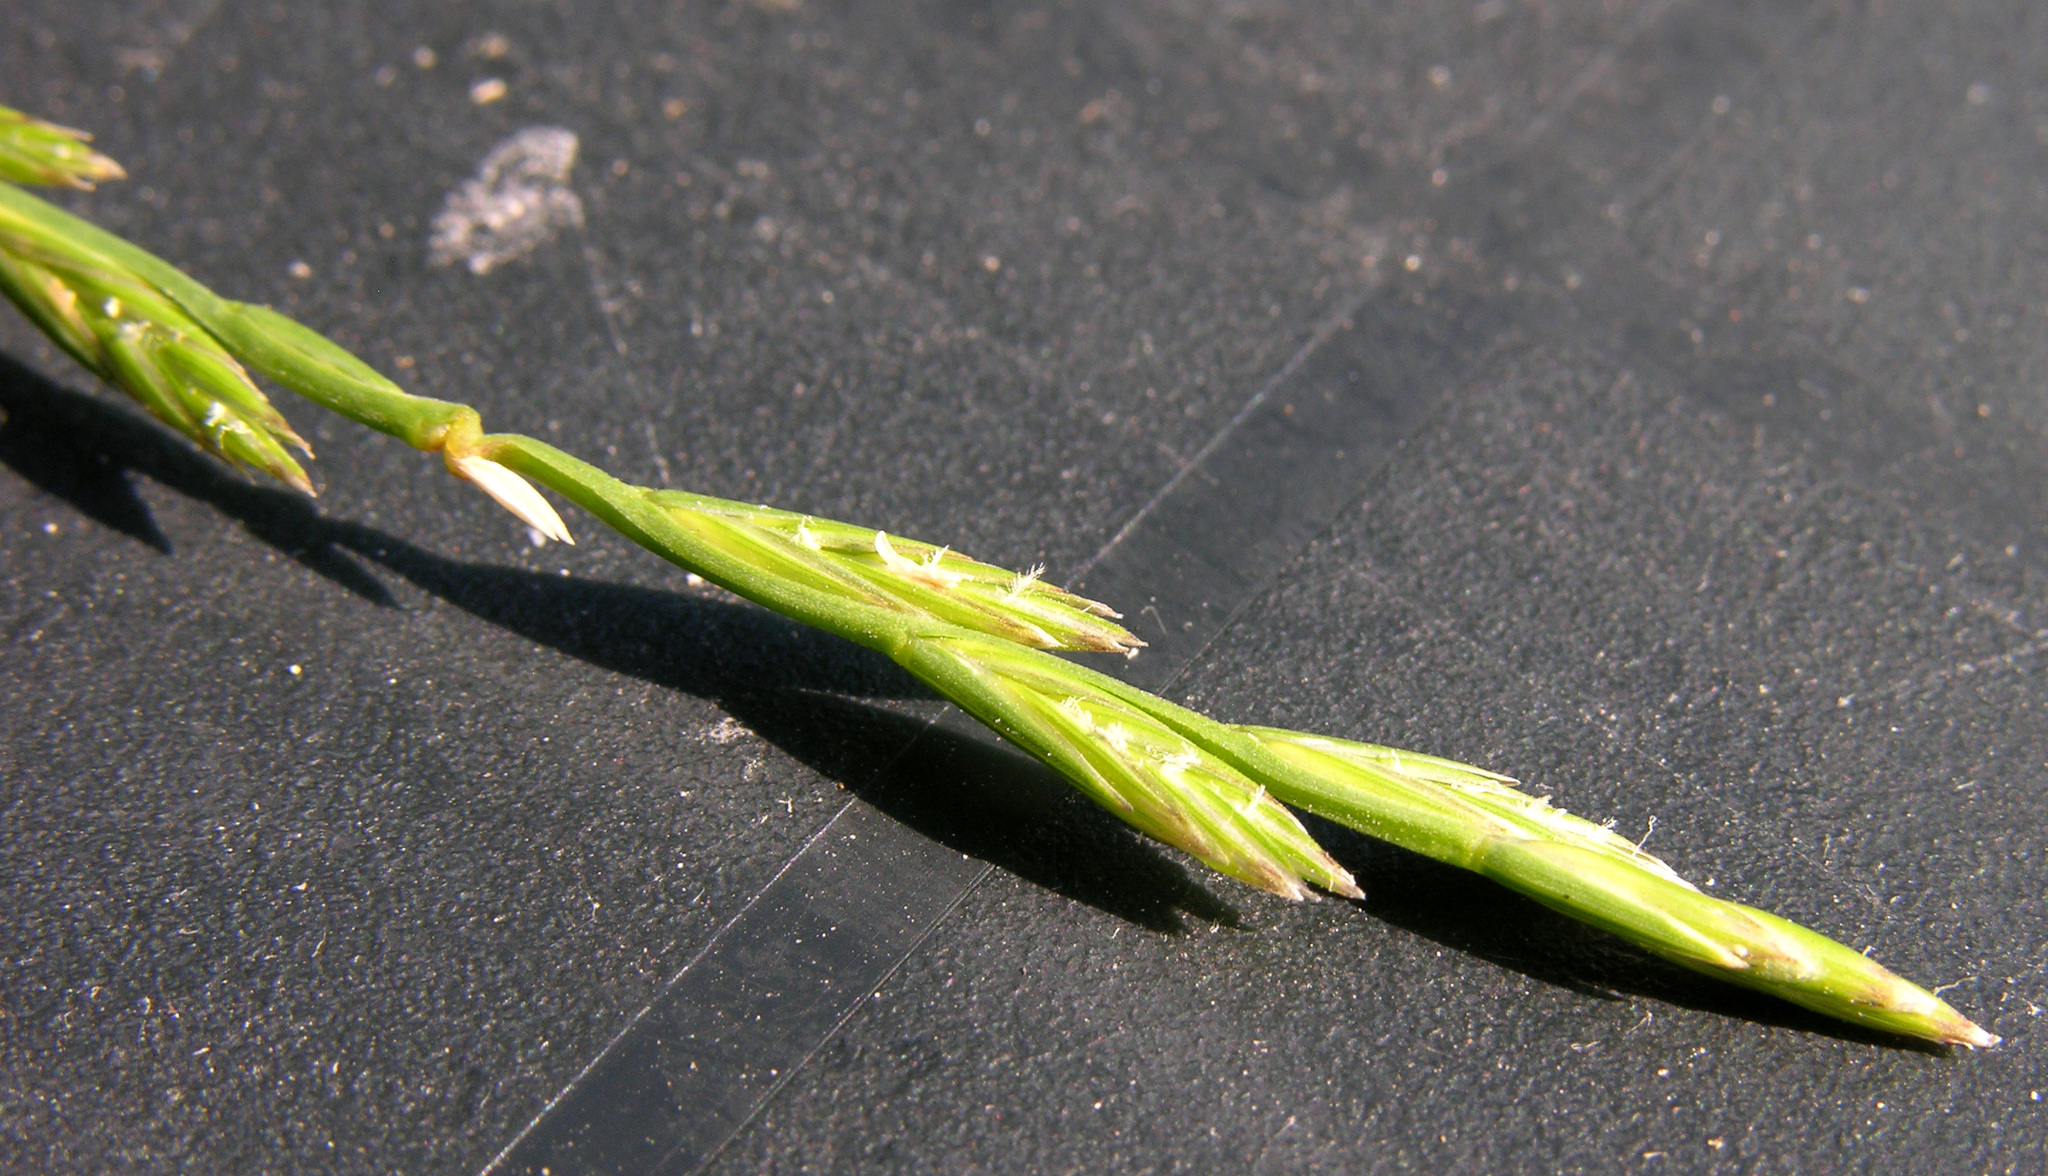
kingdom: Plantae
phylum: Tracheophyta
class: Liliopsida
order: Poales
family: Poaceae
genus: Lolium
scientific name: Lolium perenne
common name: Perennial ryegrass
